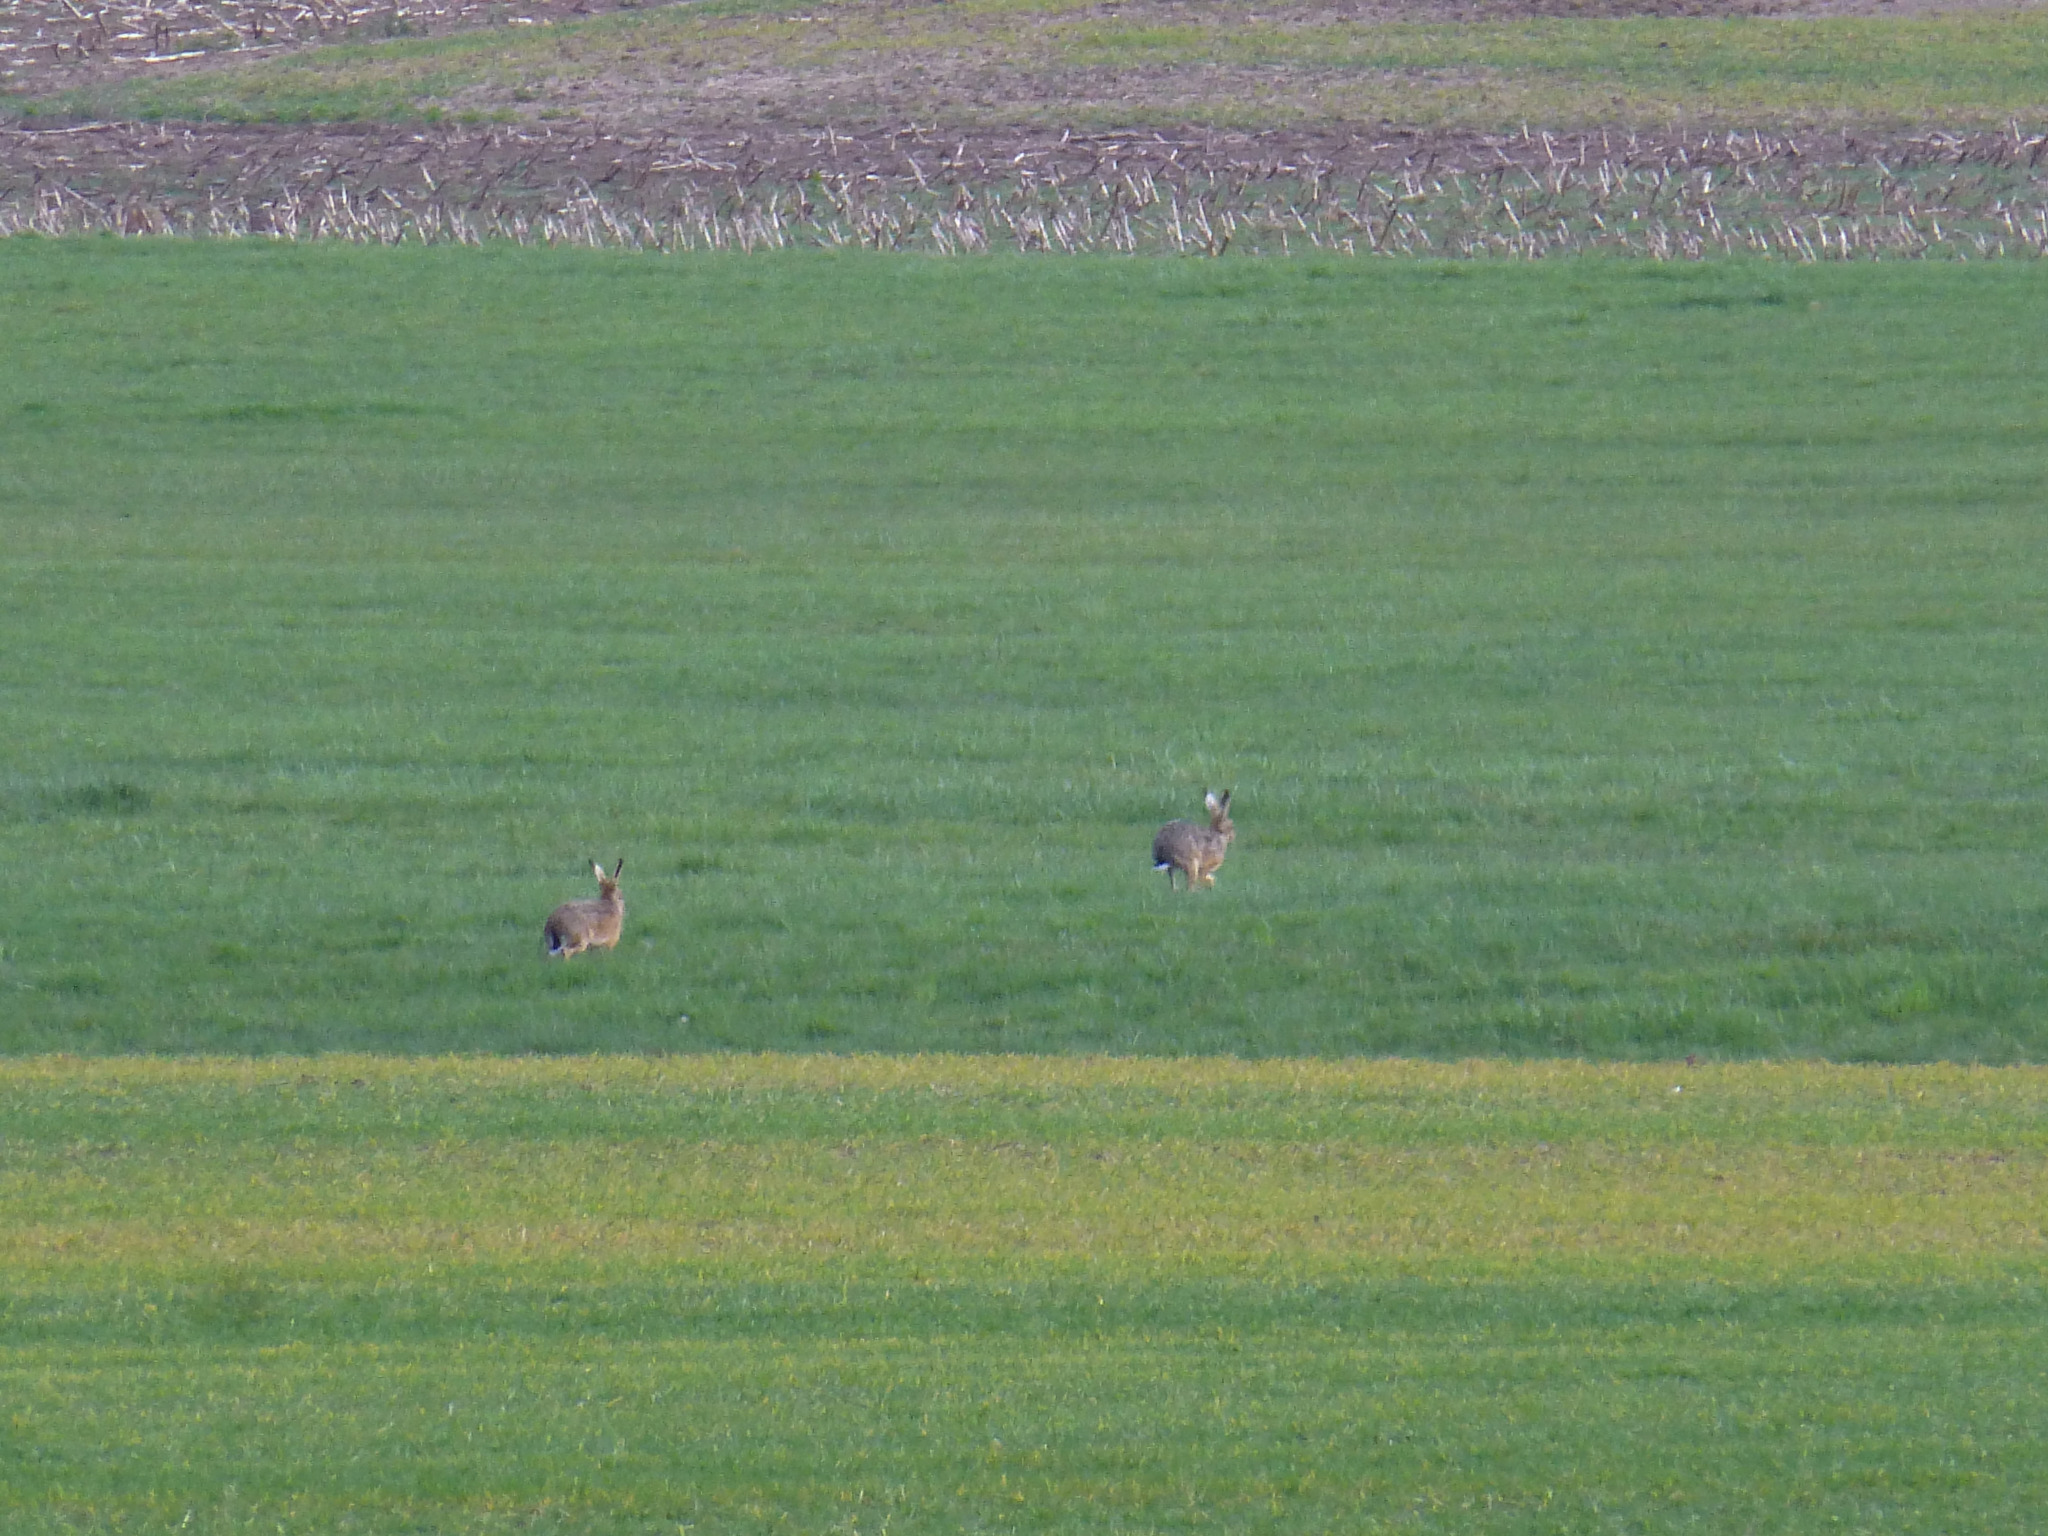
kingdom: Animalia
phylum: Chordata
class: Mammalia
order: Lagomorpha
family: Leporidae
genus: Lepus
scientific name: Lepus europaeus
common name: European hare
